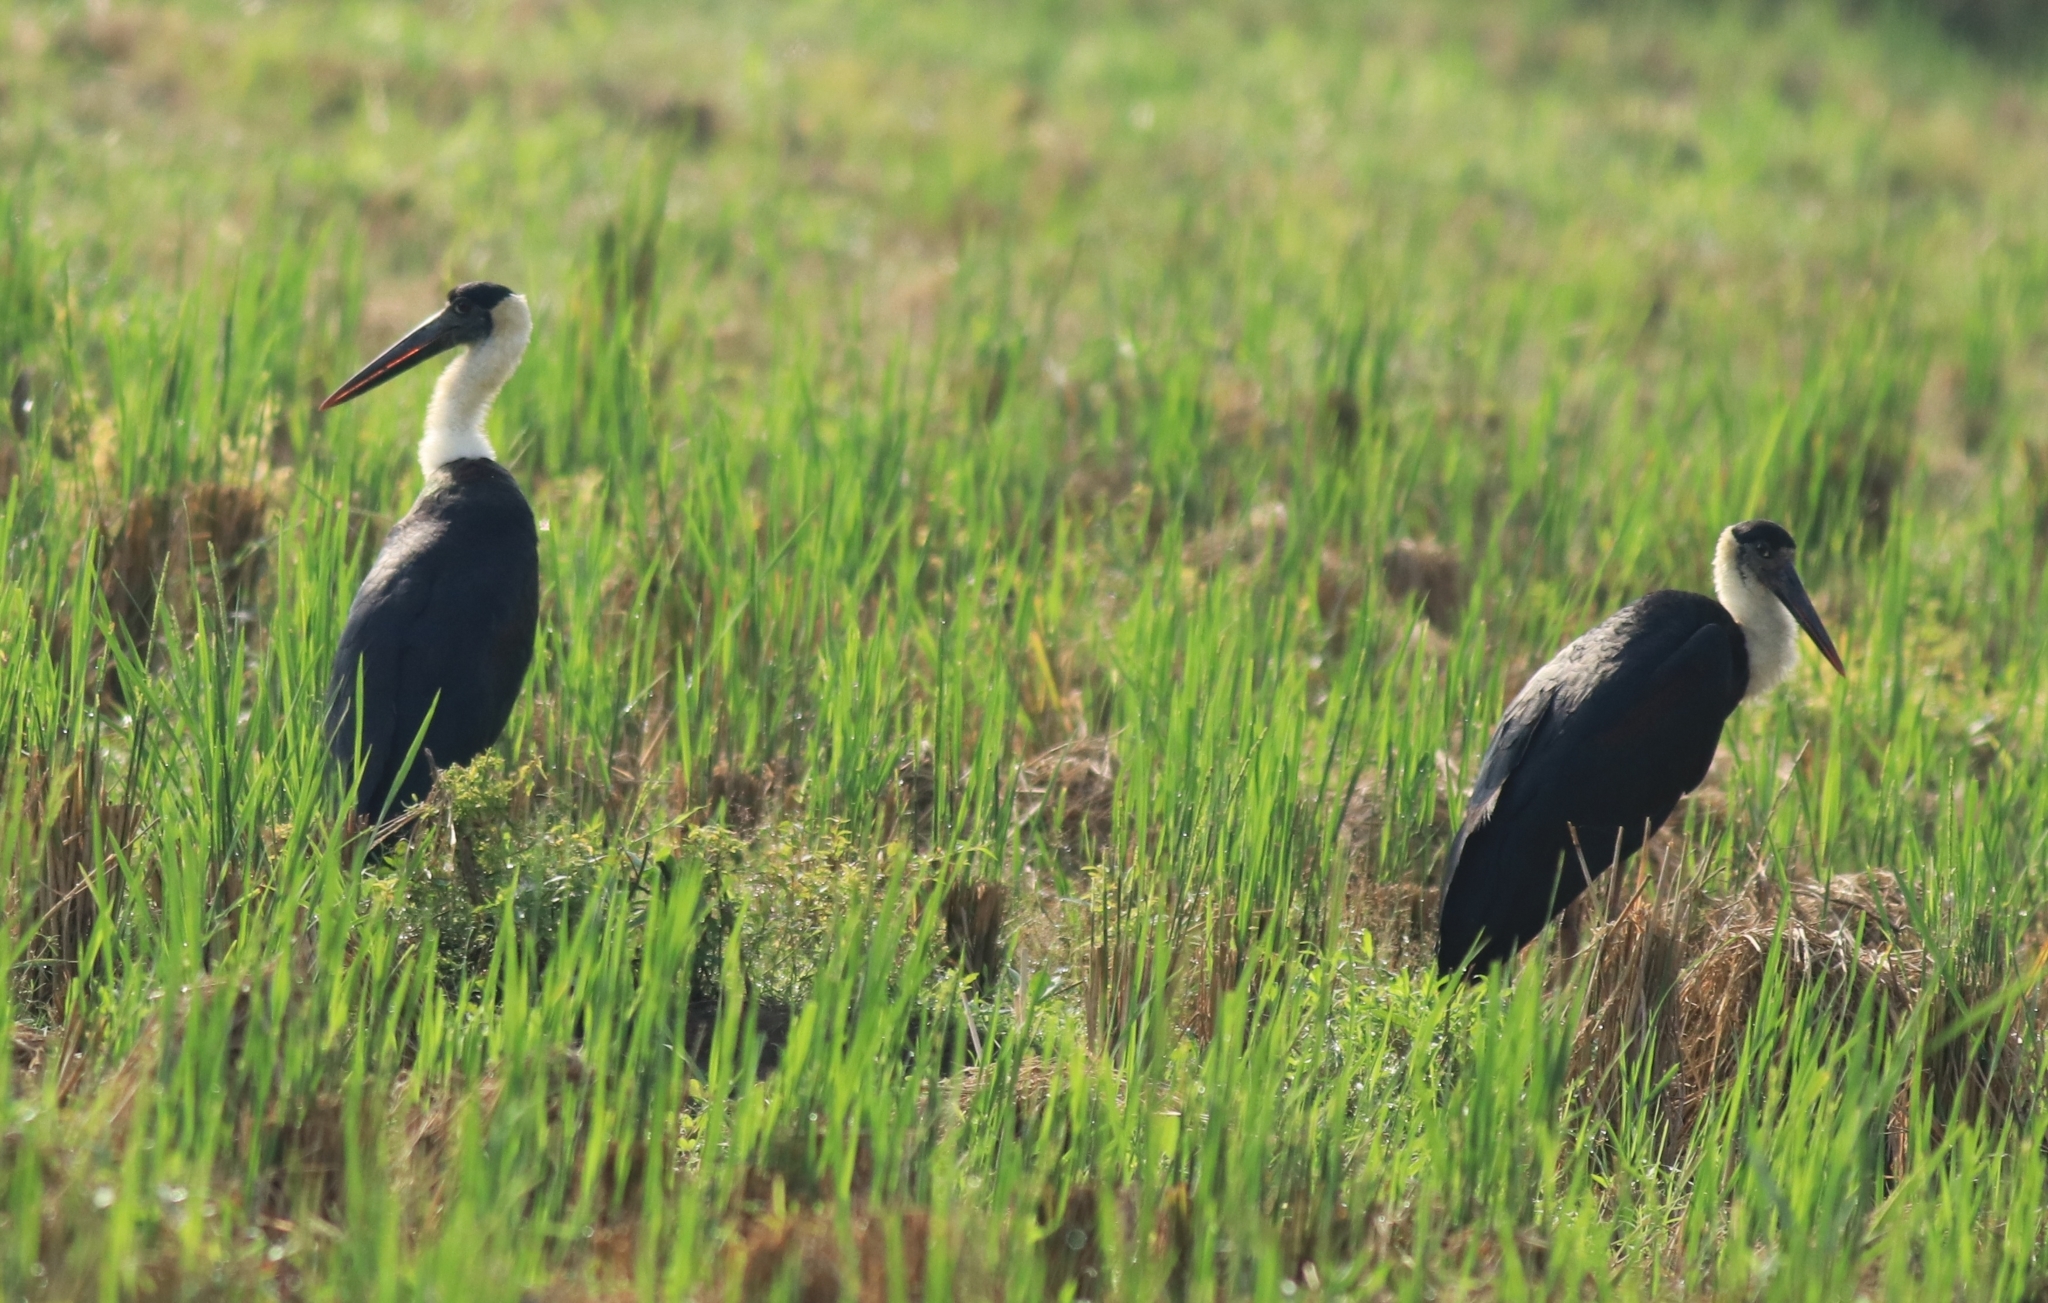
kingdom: Animalia
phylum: Chordata
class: Aves
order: Ciconiiformes
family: Ciconiidae
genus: Ciconia
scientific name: Ciconia episcopus
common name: Woolly-necked stork
